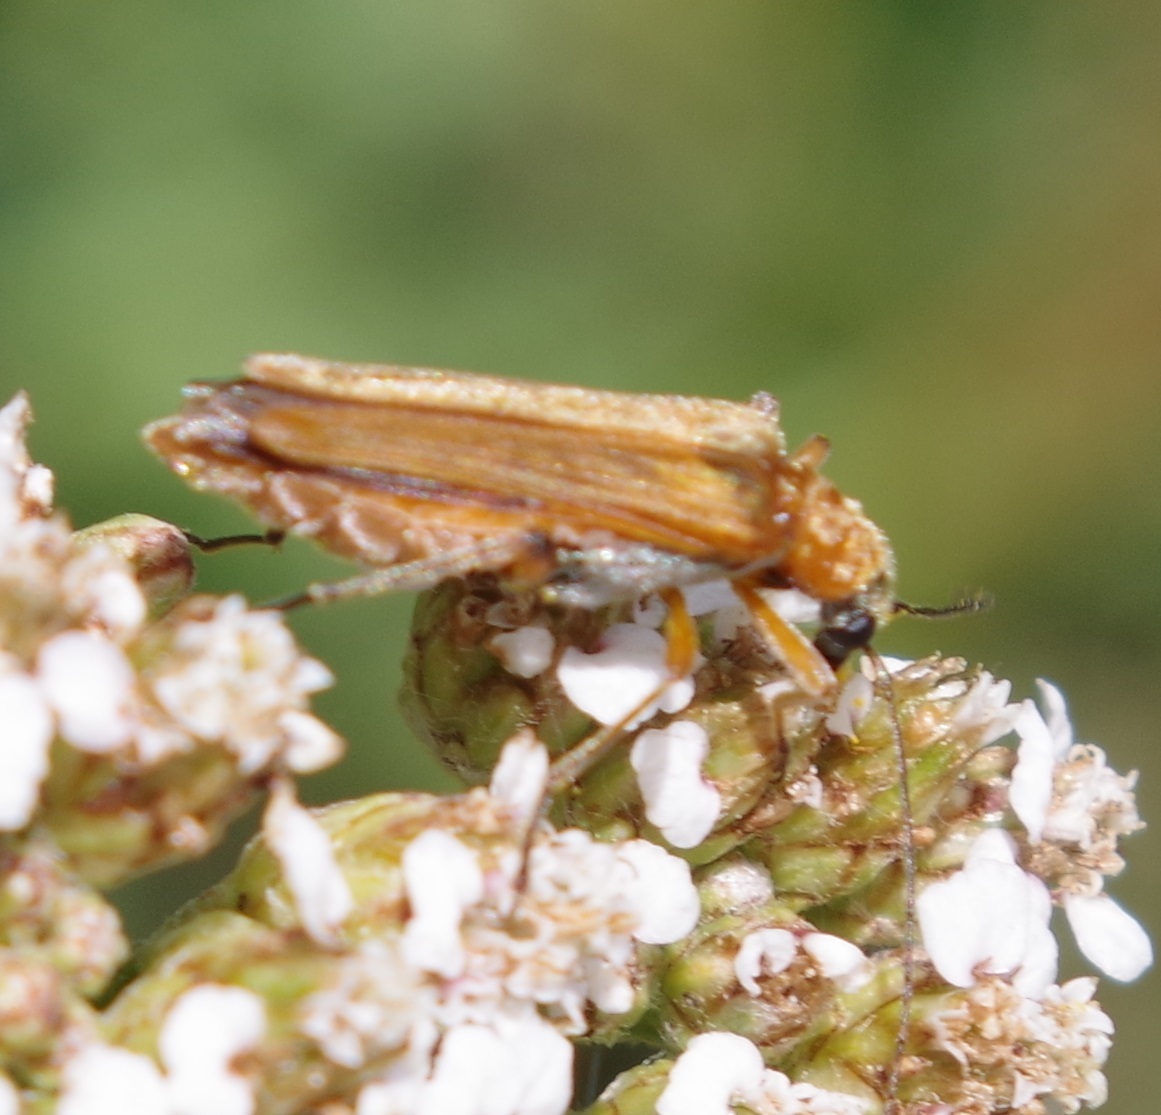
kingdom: Animalia
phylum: Arthropoda
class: Insecta
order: Coleoptera
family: Oedemeridae
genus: Oedemera
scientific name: Oedemera podagrariae
